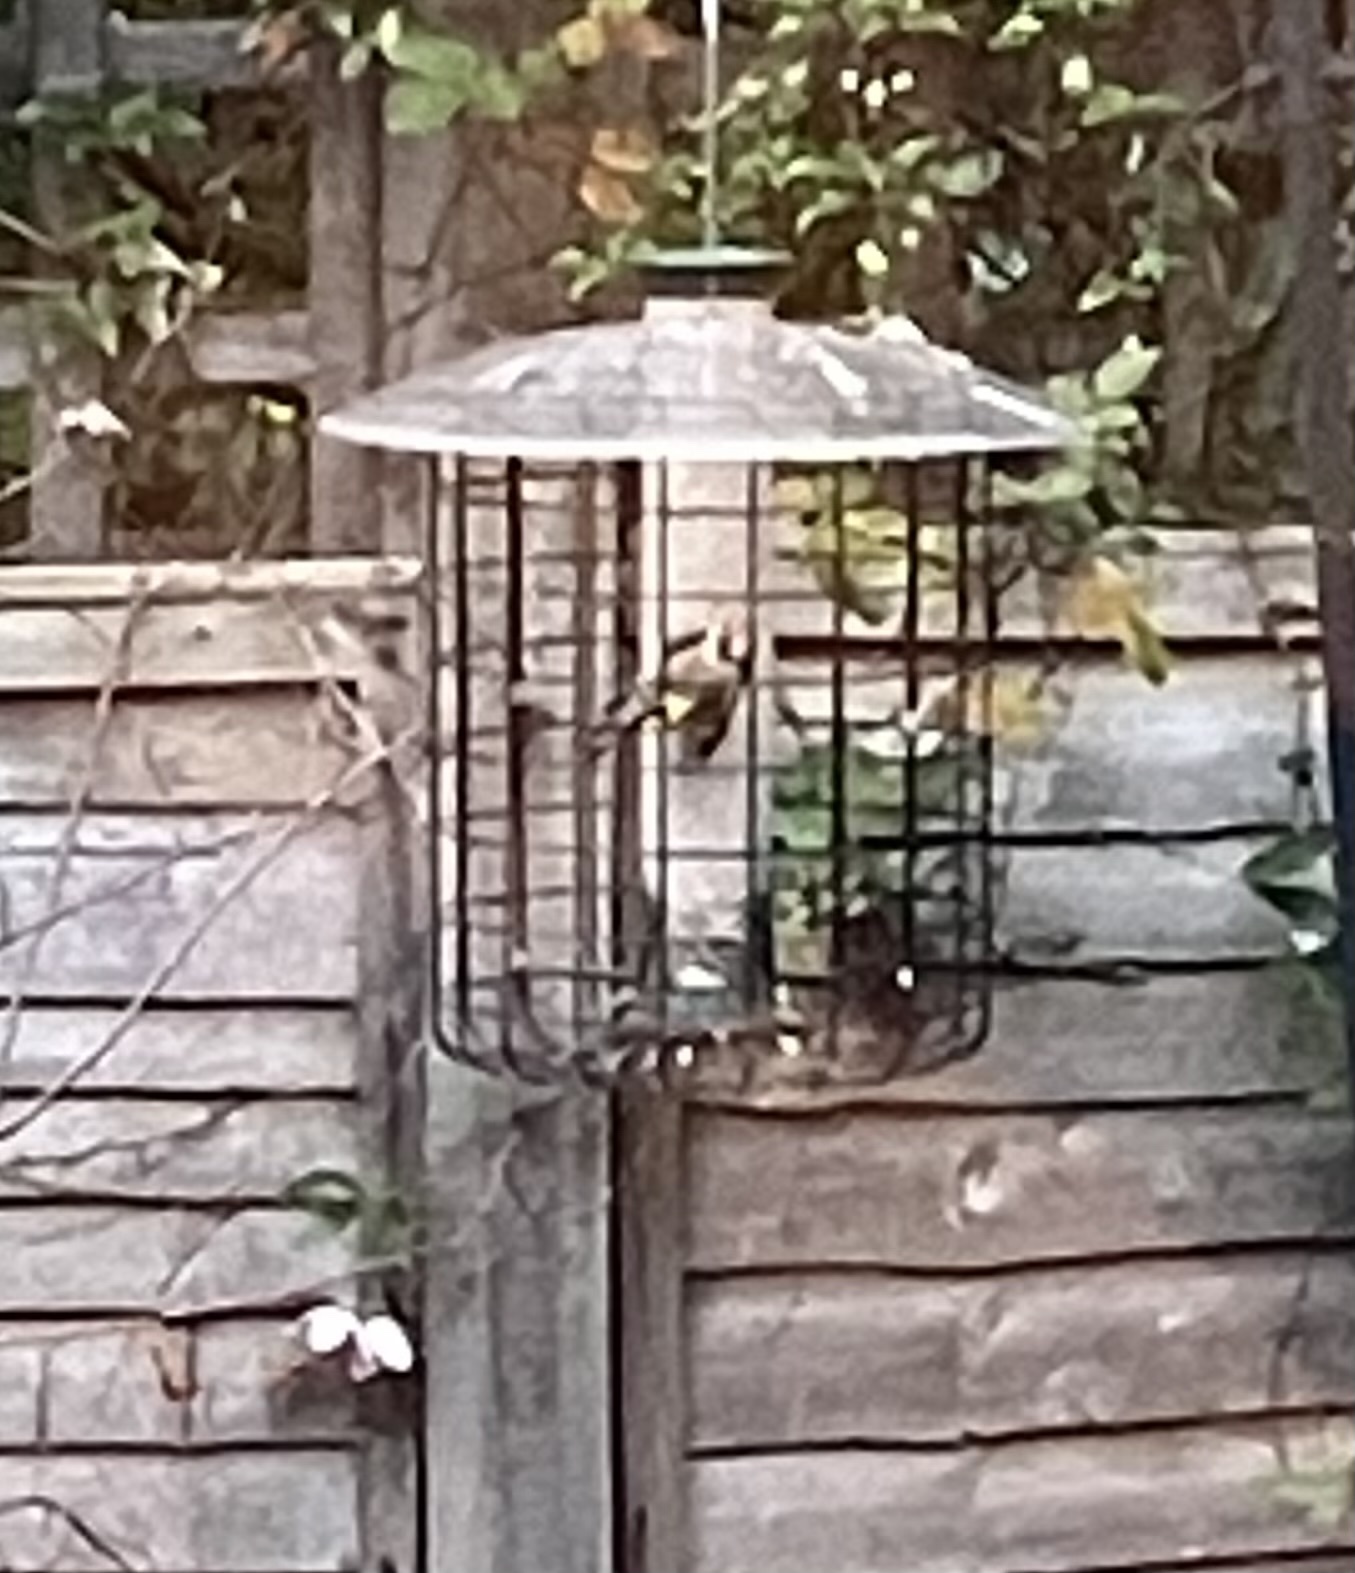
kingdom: Animalia
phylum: Chordata
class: Aves
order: Passeriformes
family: Fringillidae
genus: Carduelis
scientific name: Carduelis carduelis
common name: European goldfinch
